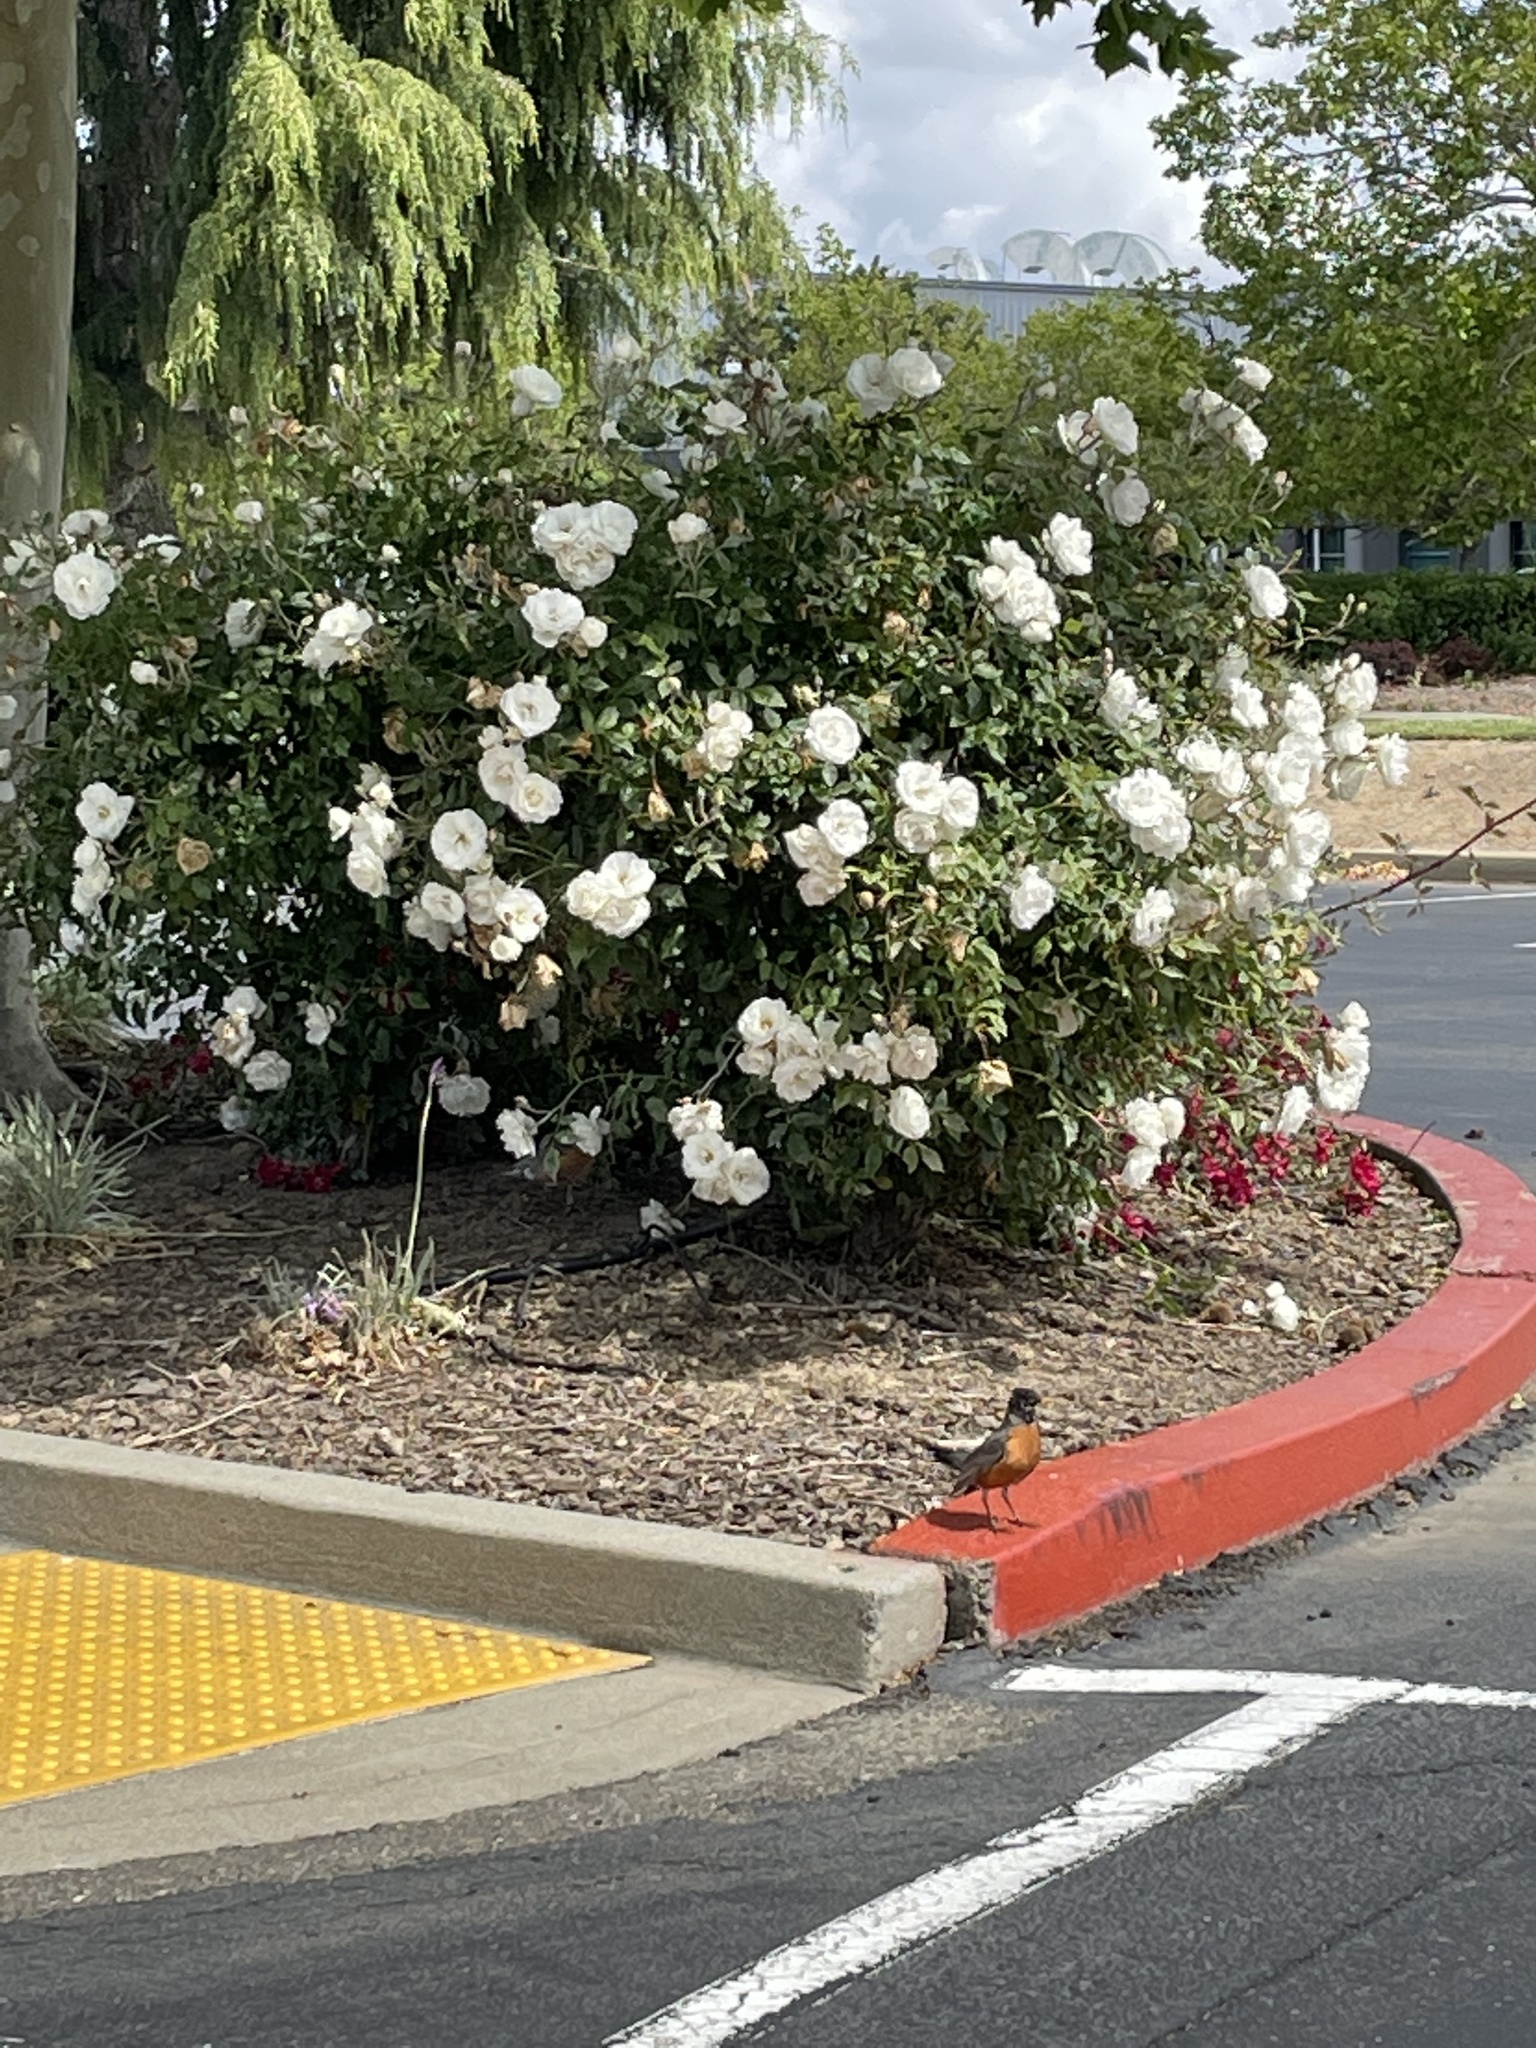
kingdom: Animalia
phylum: Chordata
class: Aves
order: Passeriformes
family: Turdidae
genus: Turdus
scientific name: Turdus migratorius
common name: American robin
